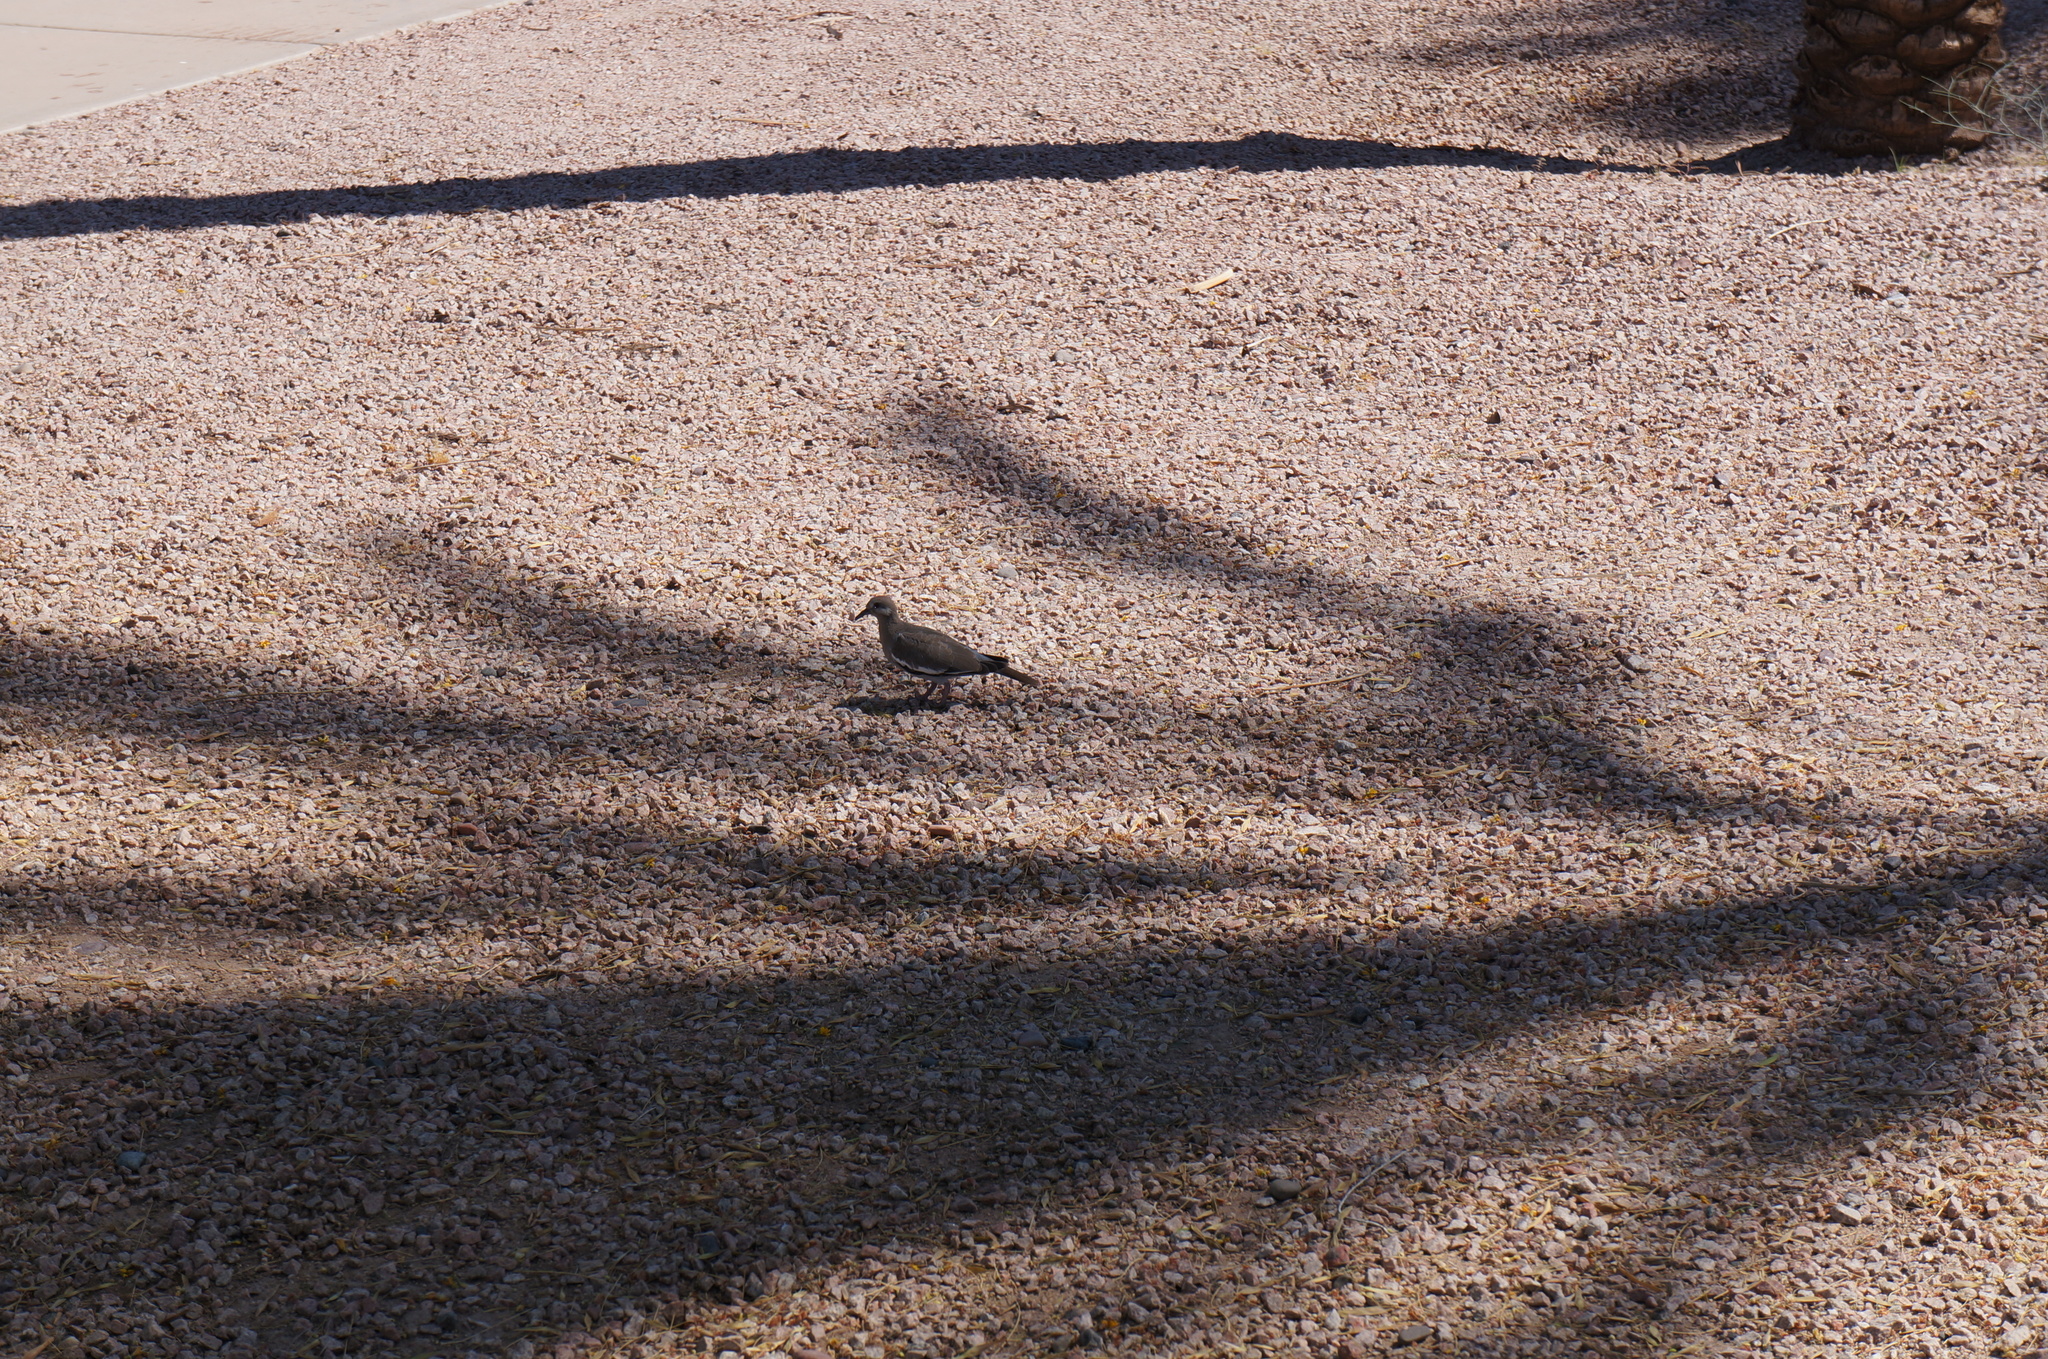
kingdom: Animalia
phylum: Chordata
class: Aves
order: Columbiformes
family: Columbidae
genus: Zenaida
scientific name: Zenaida asiatica
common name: White-winged dove
